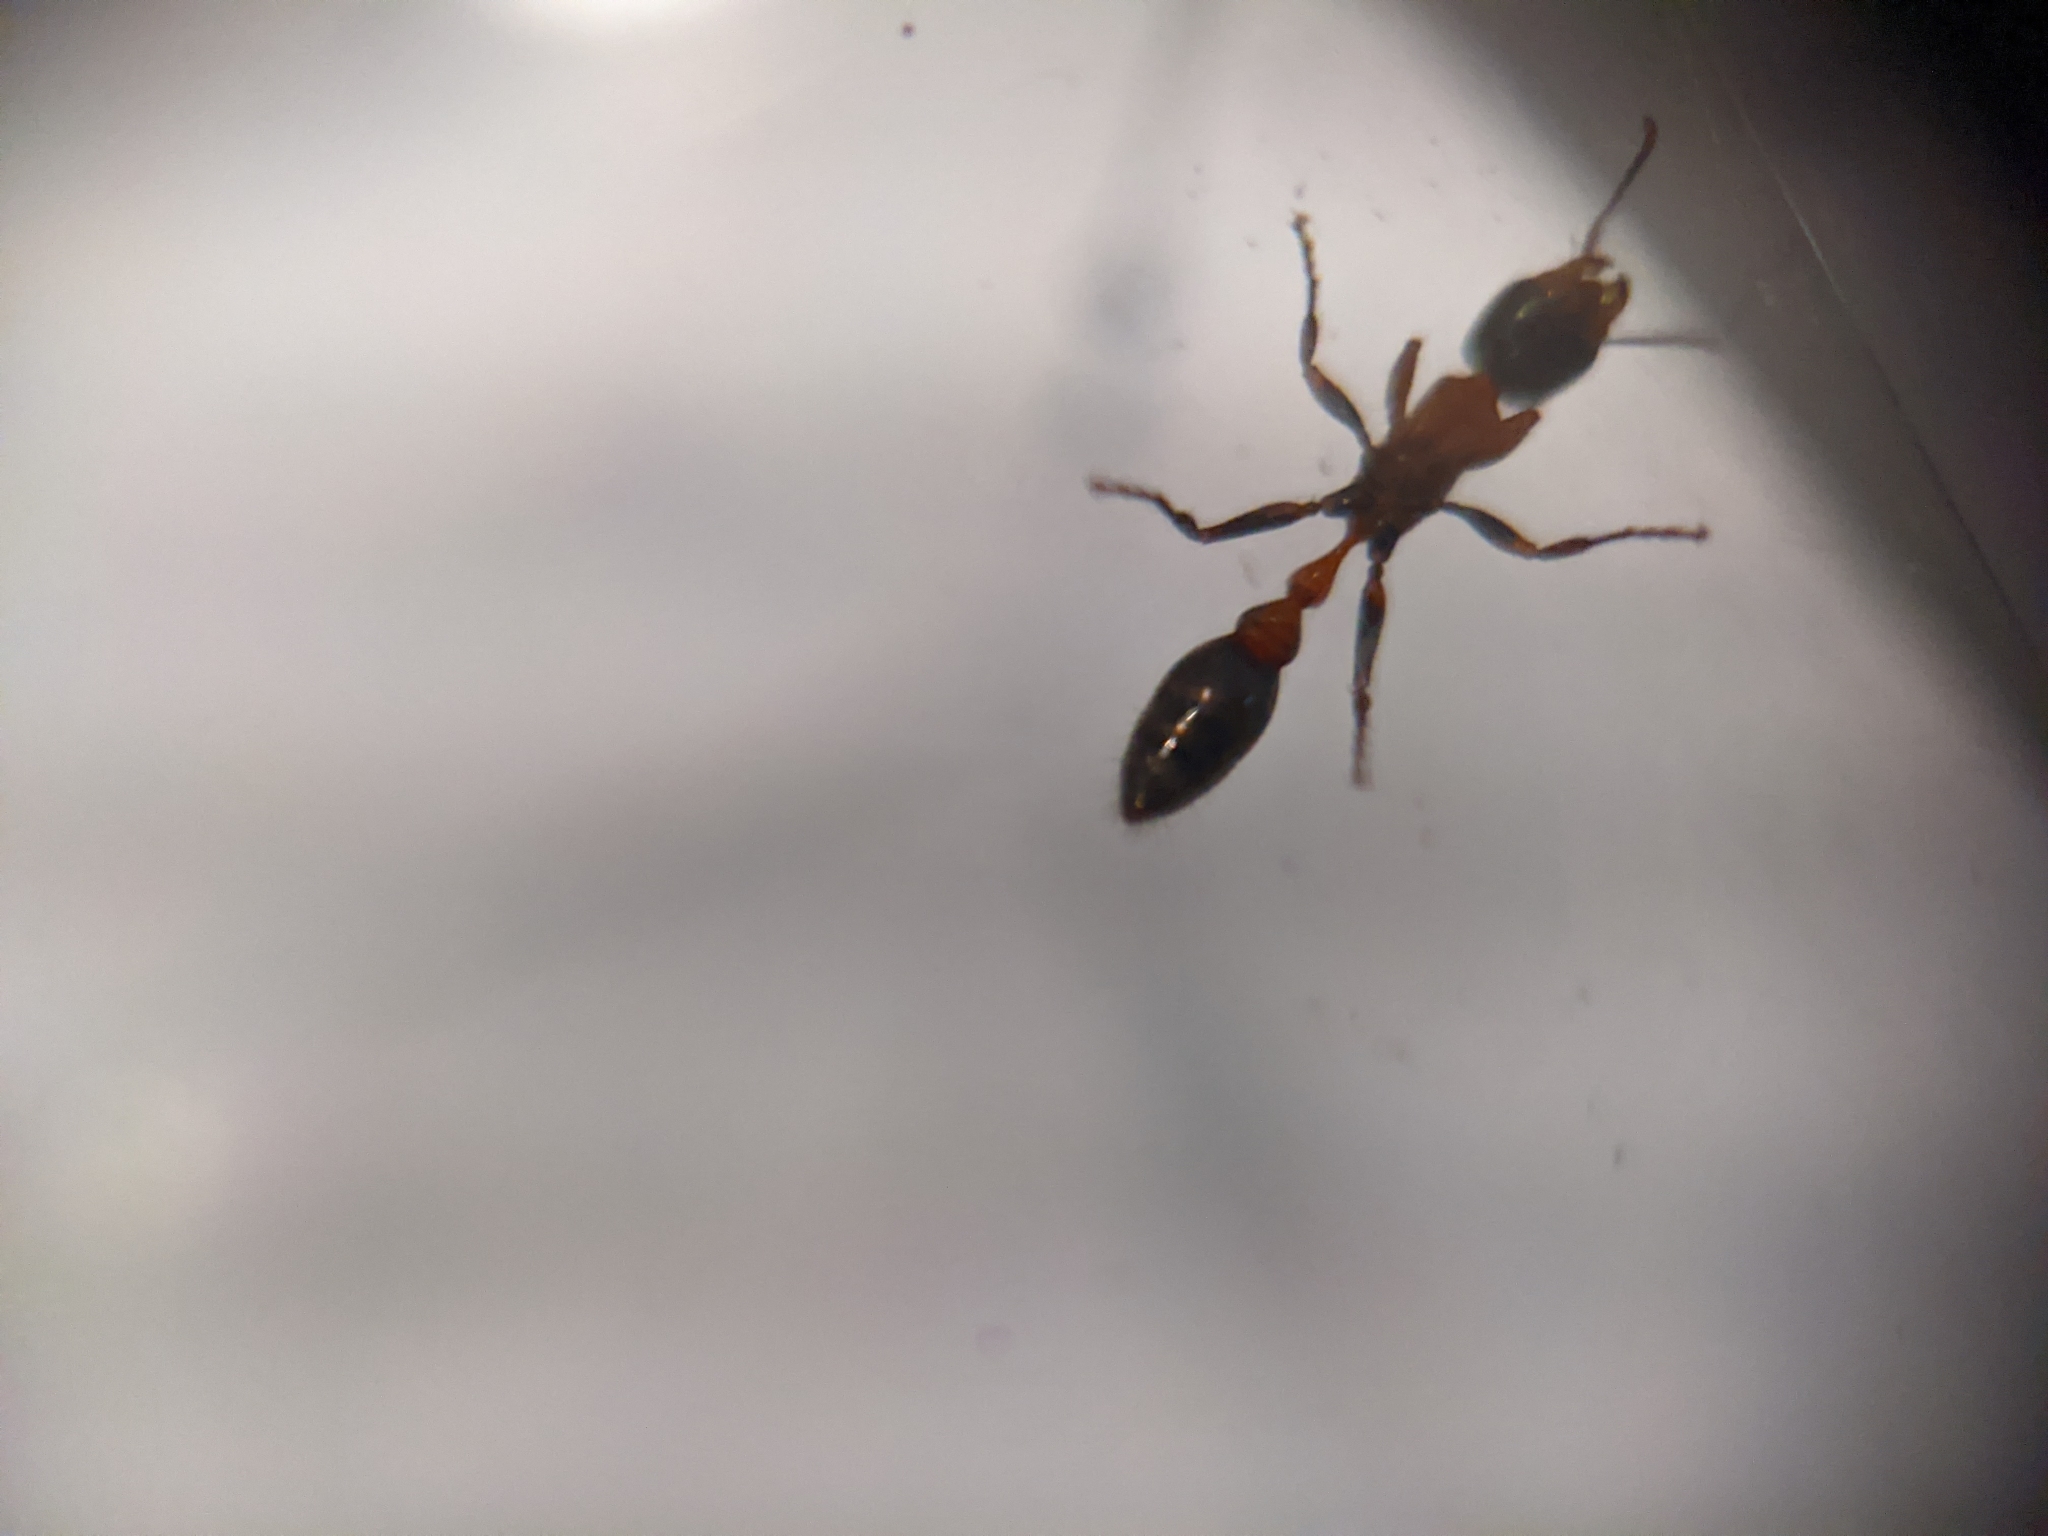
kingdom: Animalia
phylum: Arthropoda
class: Insecta
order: Hymenoptera
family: Formicidae
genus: Pseudomyrmex
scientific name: Pseudomyrmex gracilis
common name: Graceful twig ant
